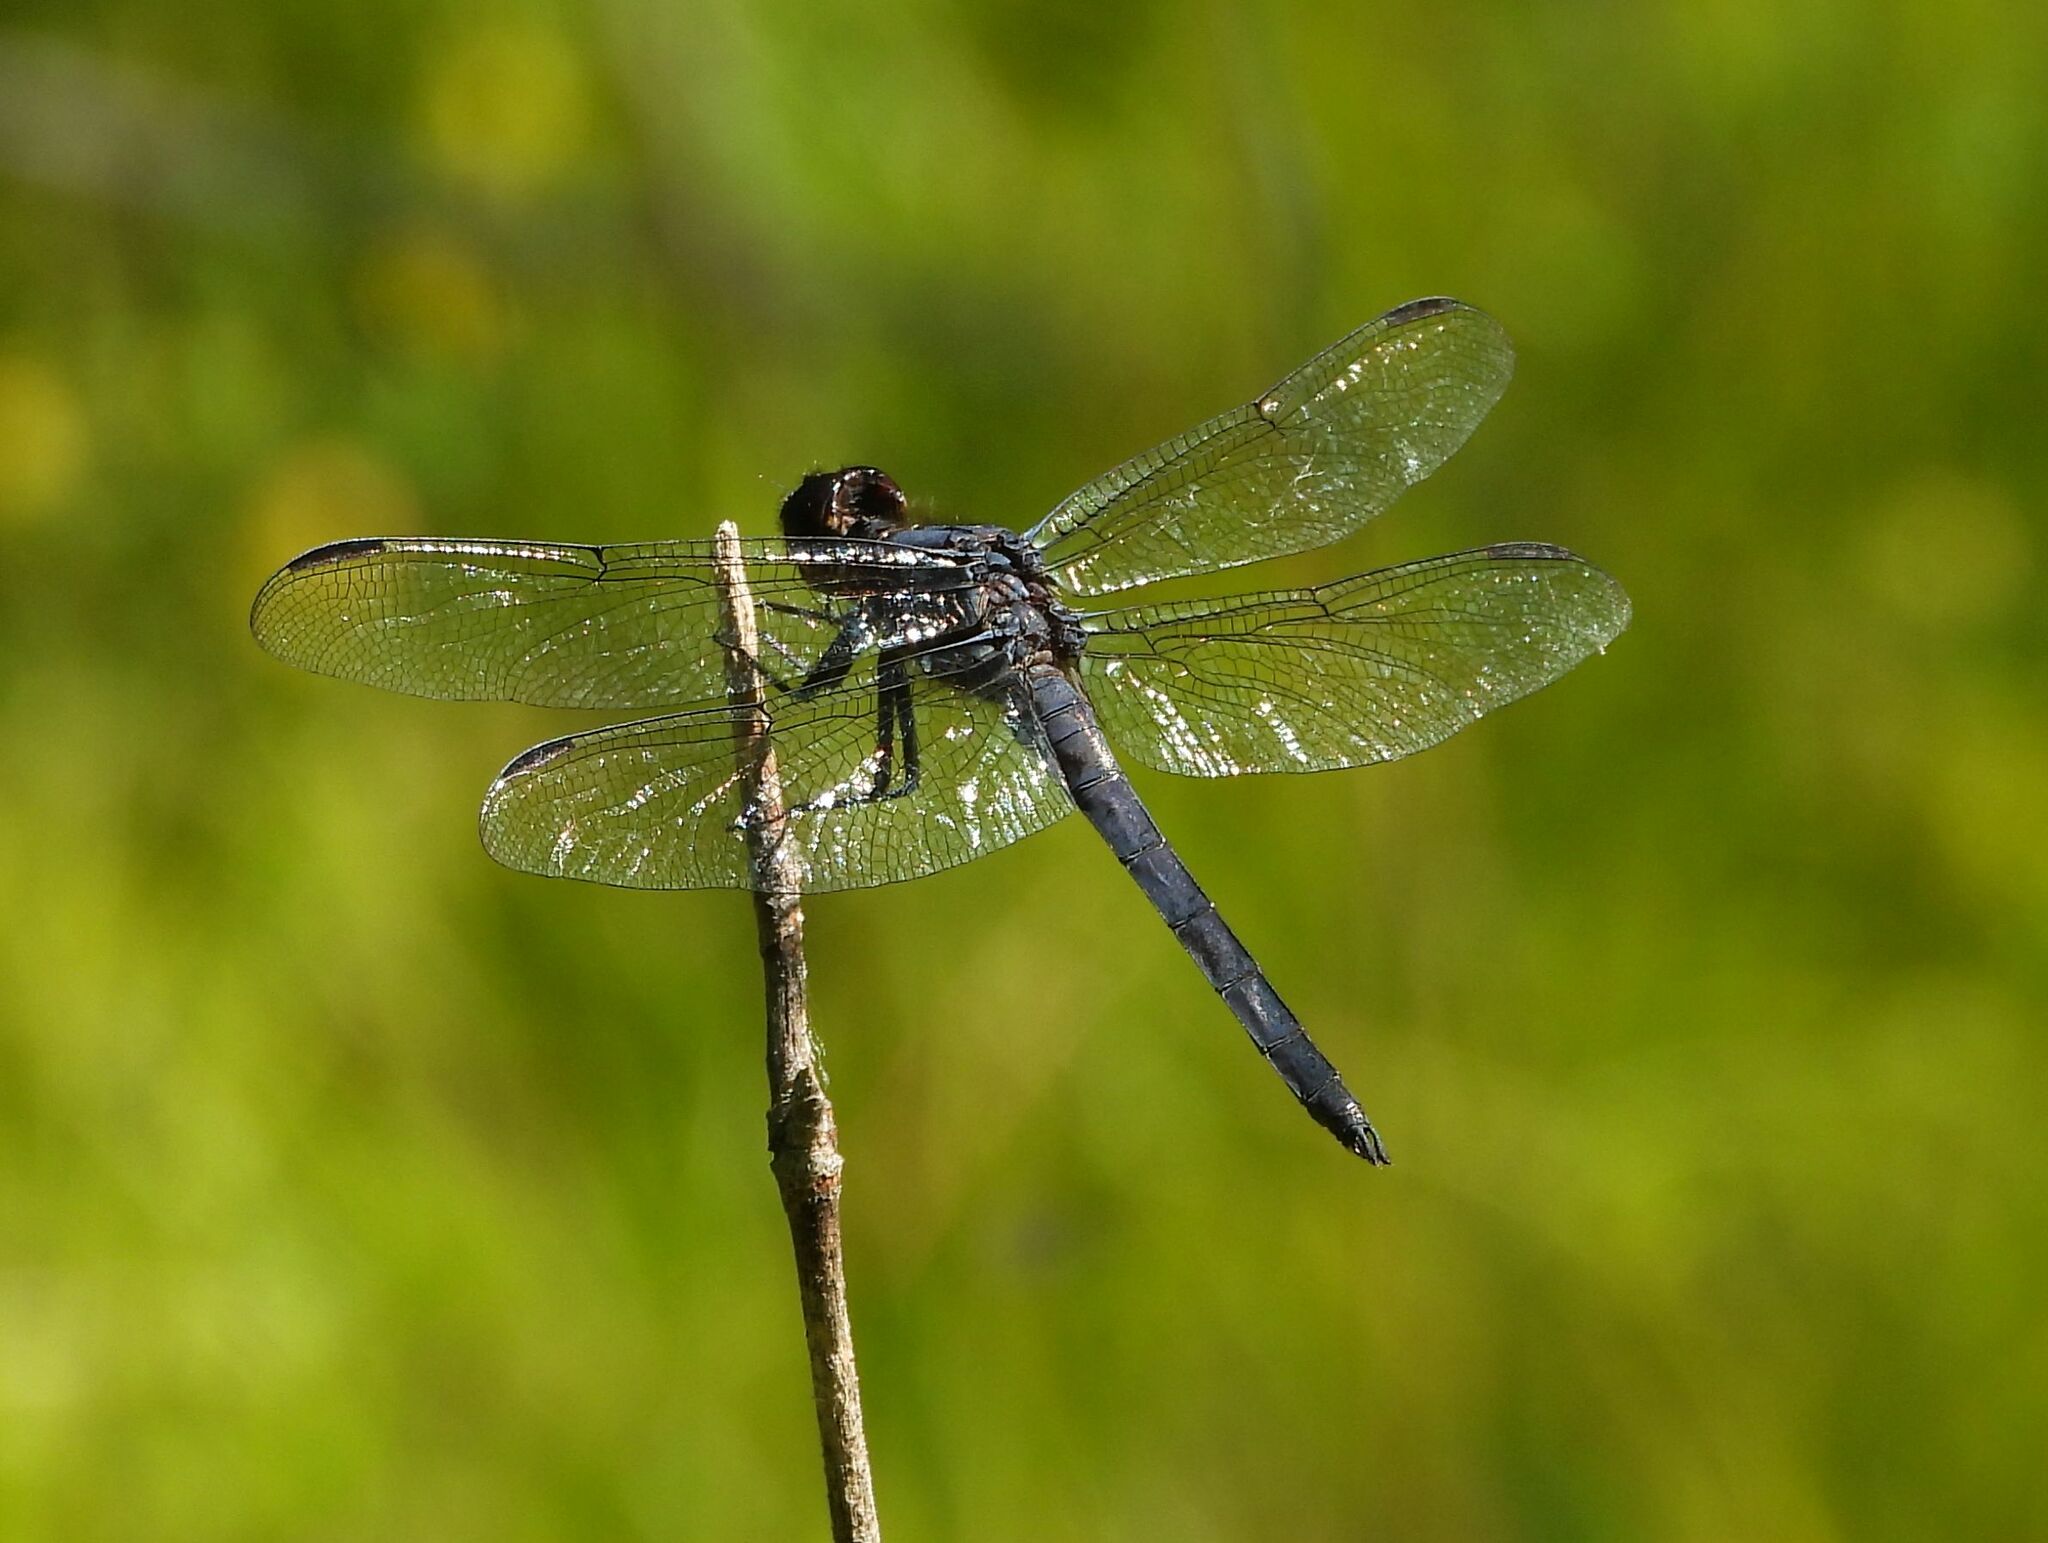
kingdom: Animalia
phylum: Arthropoda
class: Insecta
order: Odonata
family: Libellulidae
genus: Libellula
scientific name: Libellula incesta
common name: Slaty skimmer
